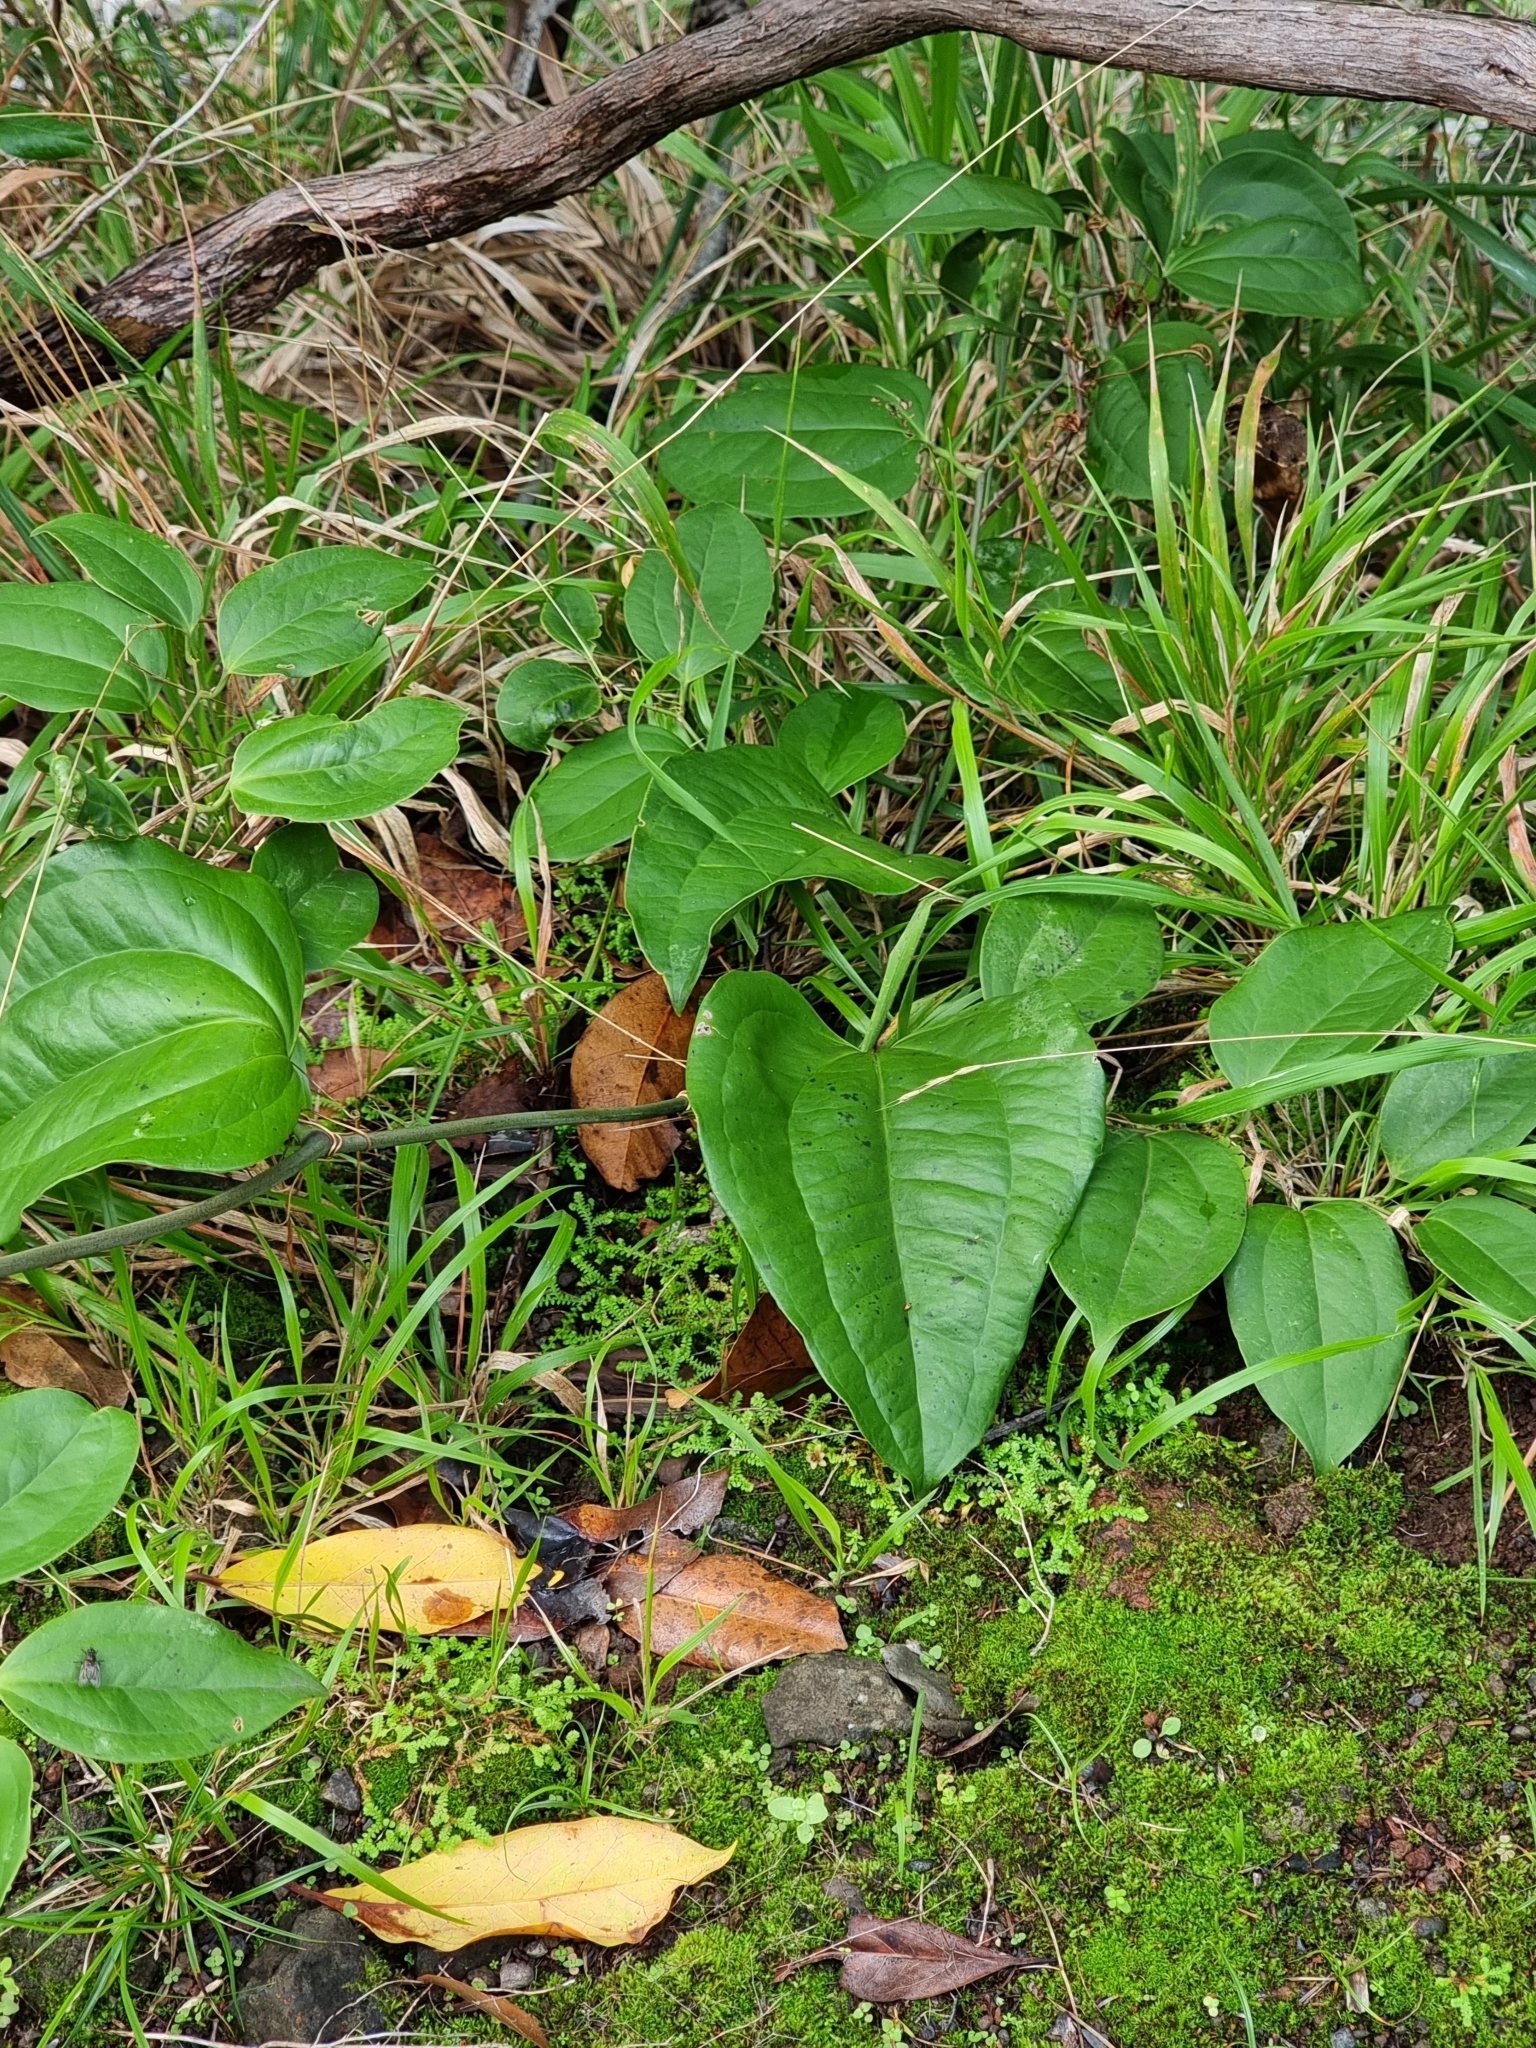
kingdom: Plantae
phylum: Tracheophyta
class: Liliopsida
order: Liliales
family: Smilacaceae
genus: Smilax
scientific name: Smilax canariensis
